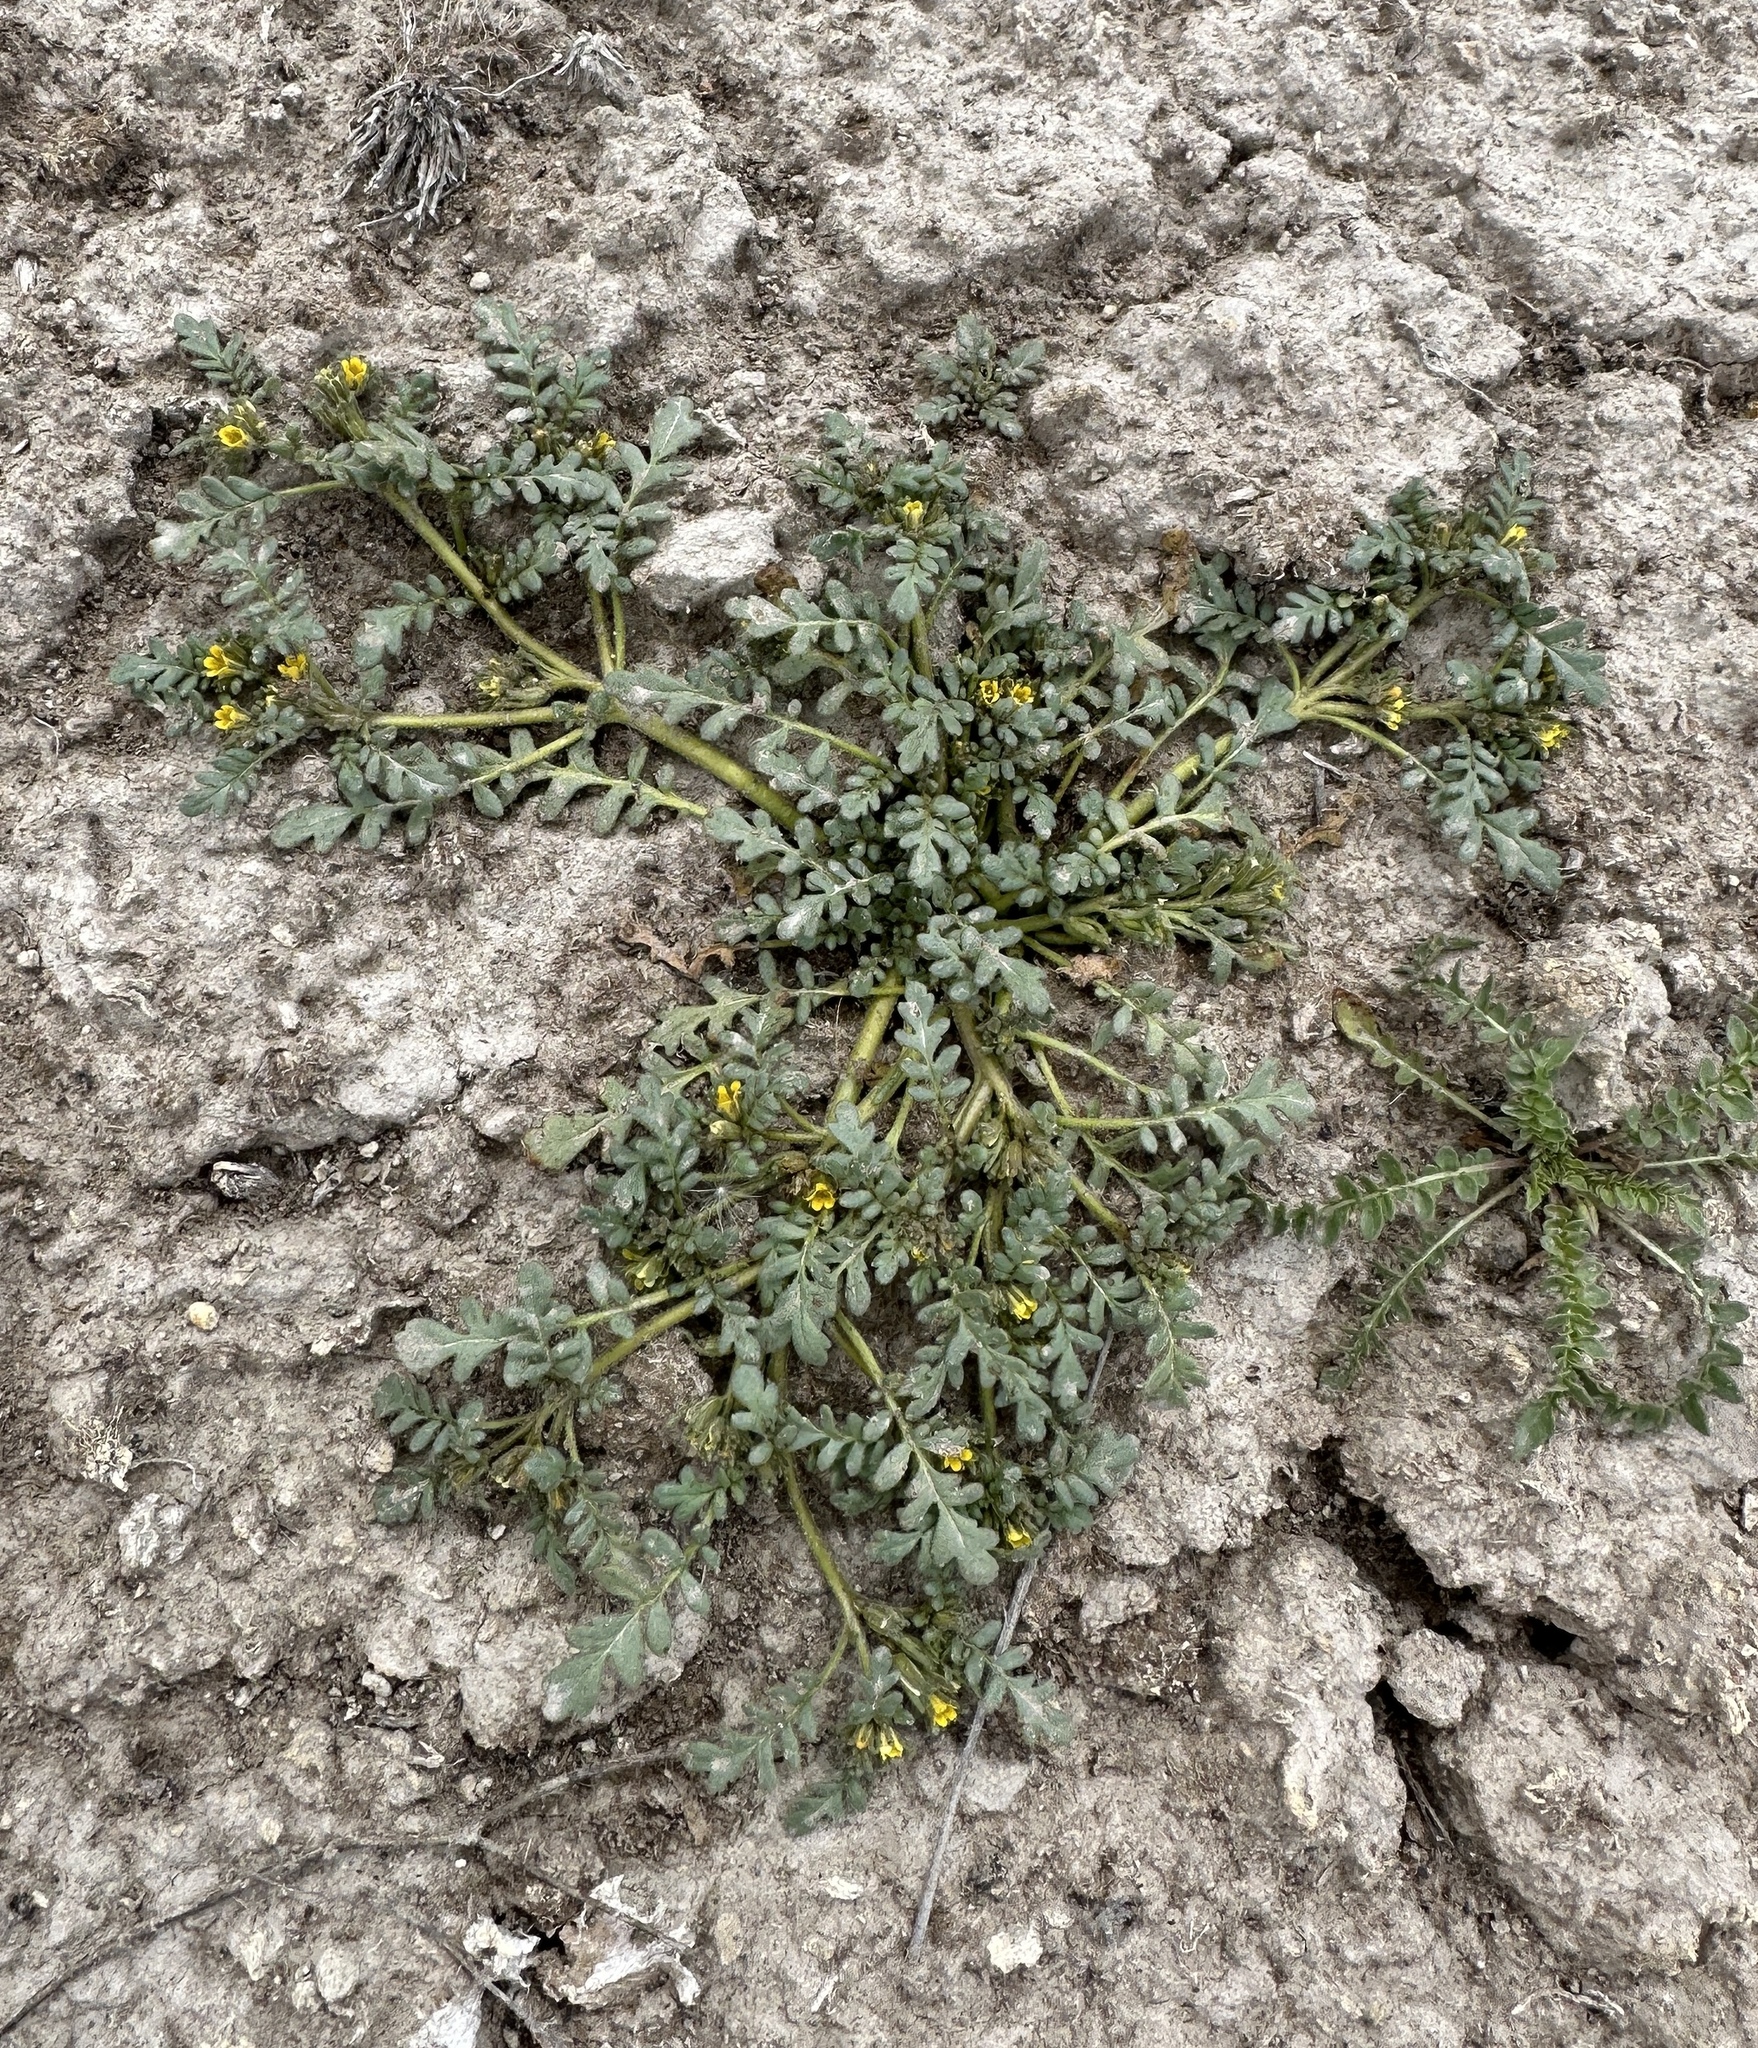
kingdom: Plantae
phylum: Tracheophyta
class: Magnoliopsida
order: Boraginales
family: Hydrophyllaceae
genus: Phacelia
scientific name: Phacelia inundata
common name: Playa phacelia
